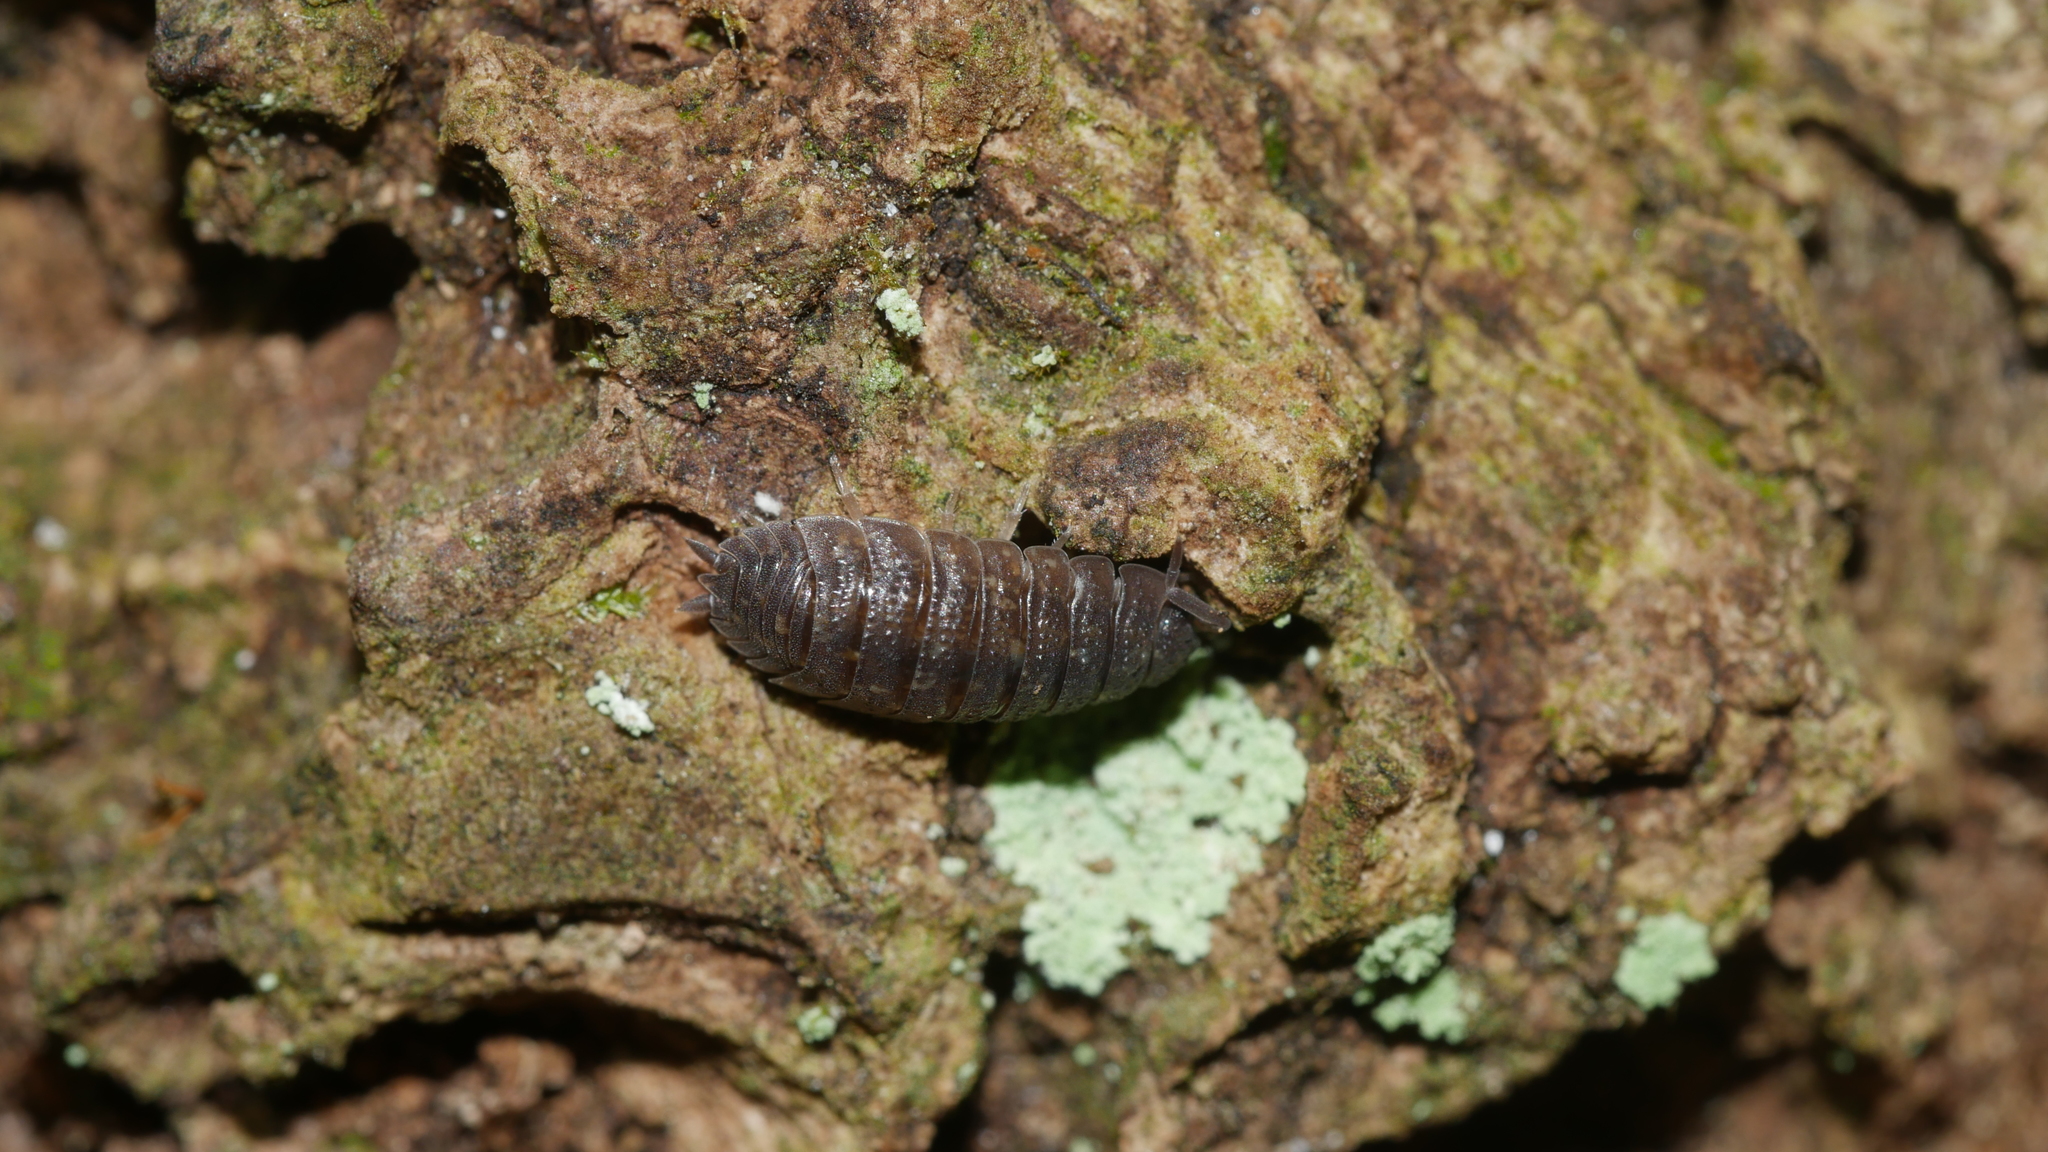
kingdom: Animalia
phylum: Arthropoda
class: Malacostraca
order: Isopoda
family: Porcellionidae
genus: Porcellio
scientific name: Porcellio scaber
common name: Common rough woodlouse
